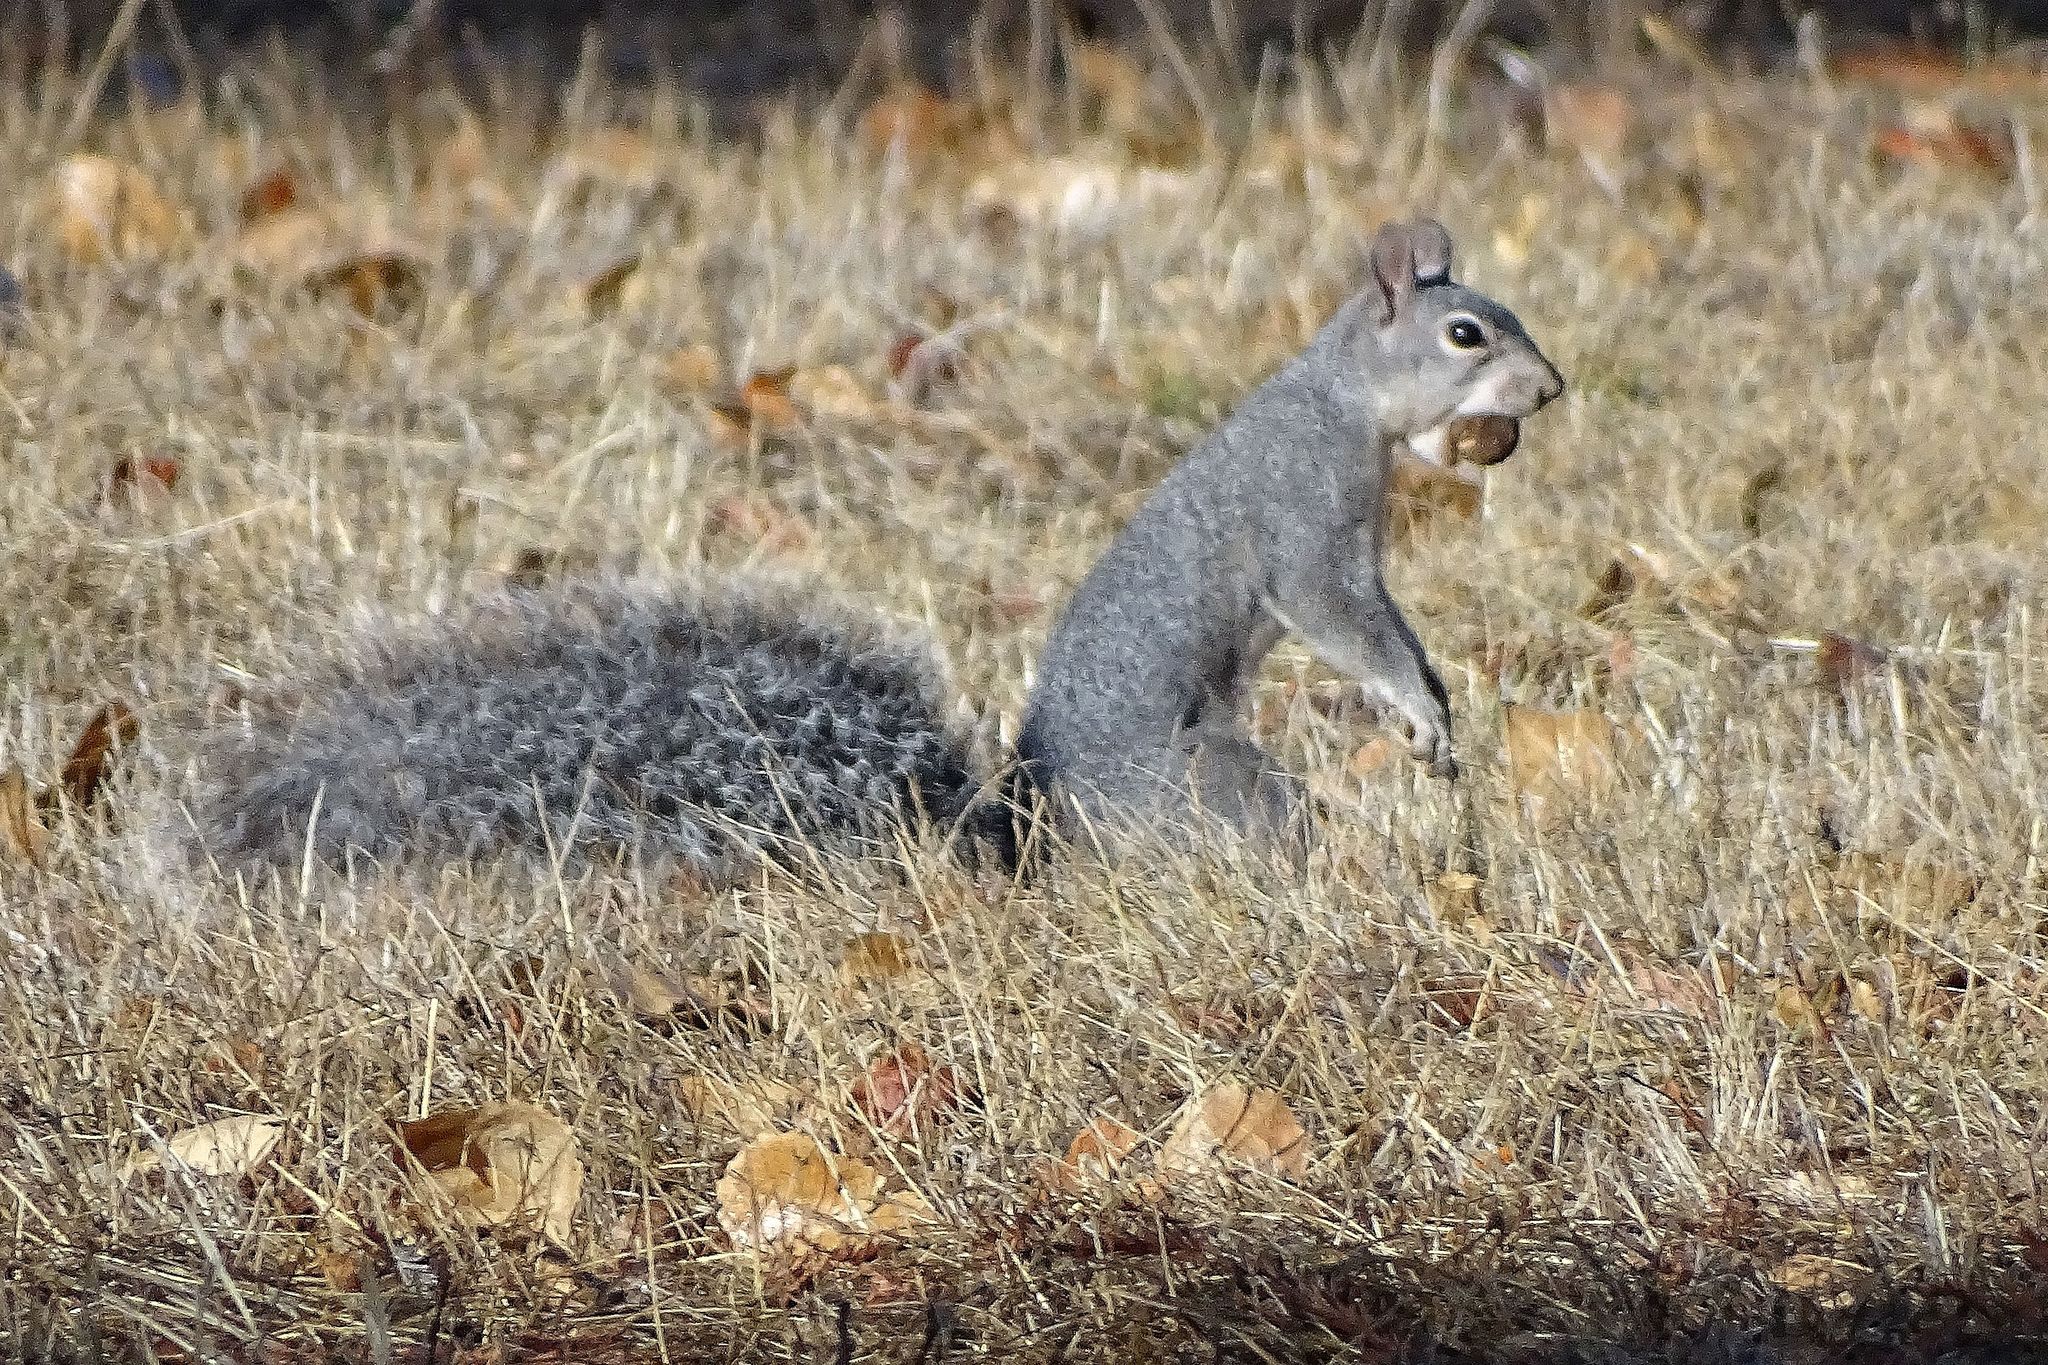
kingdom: Animalia
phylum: Chordata
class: Mammalia
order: Rodentia
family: Sciuridae
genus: Sciurus
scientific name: Sciurus griseus
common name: Western gray squirrel
